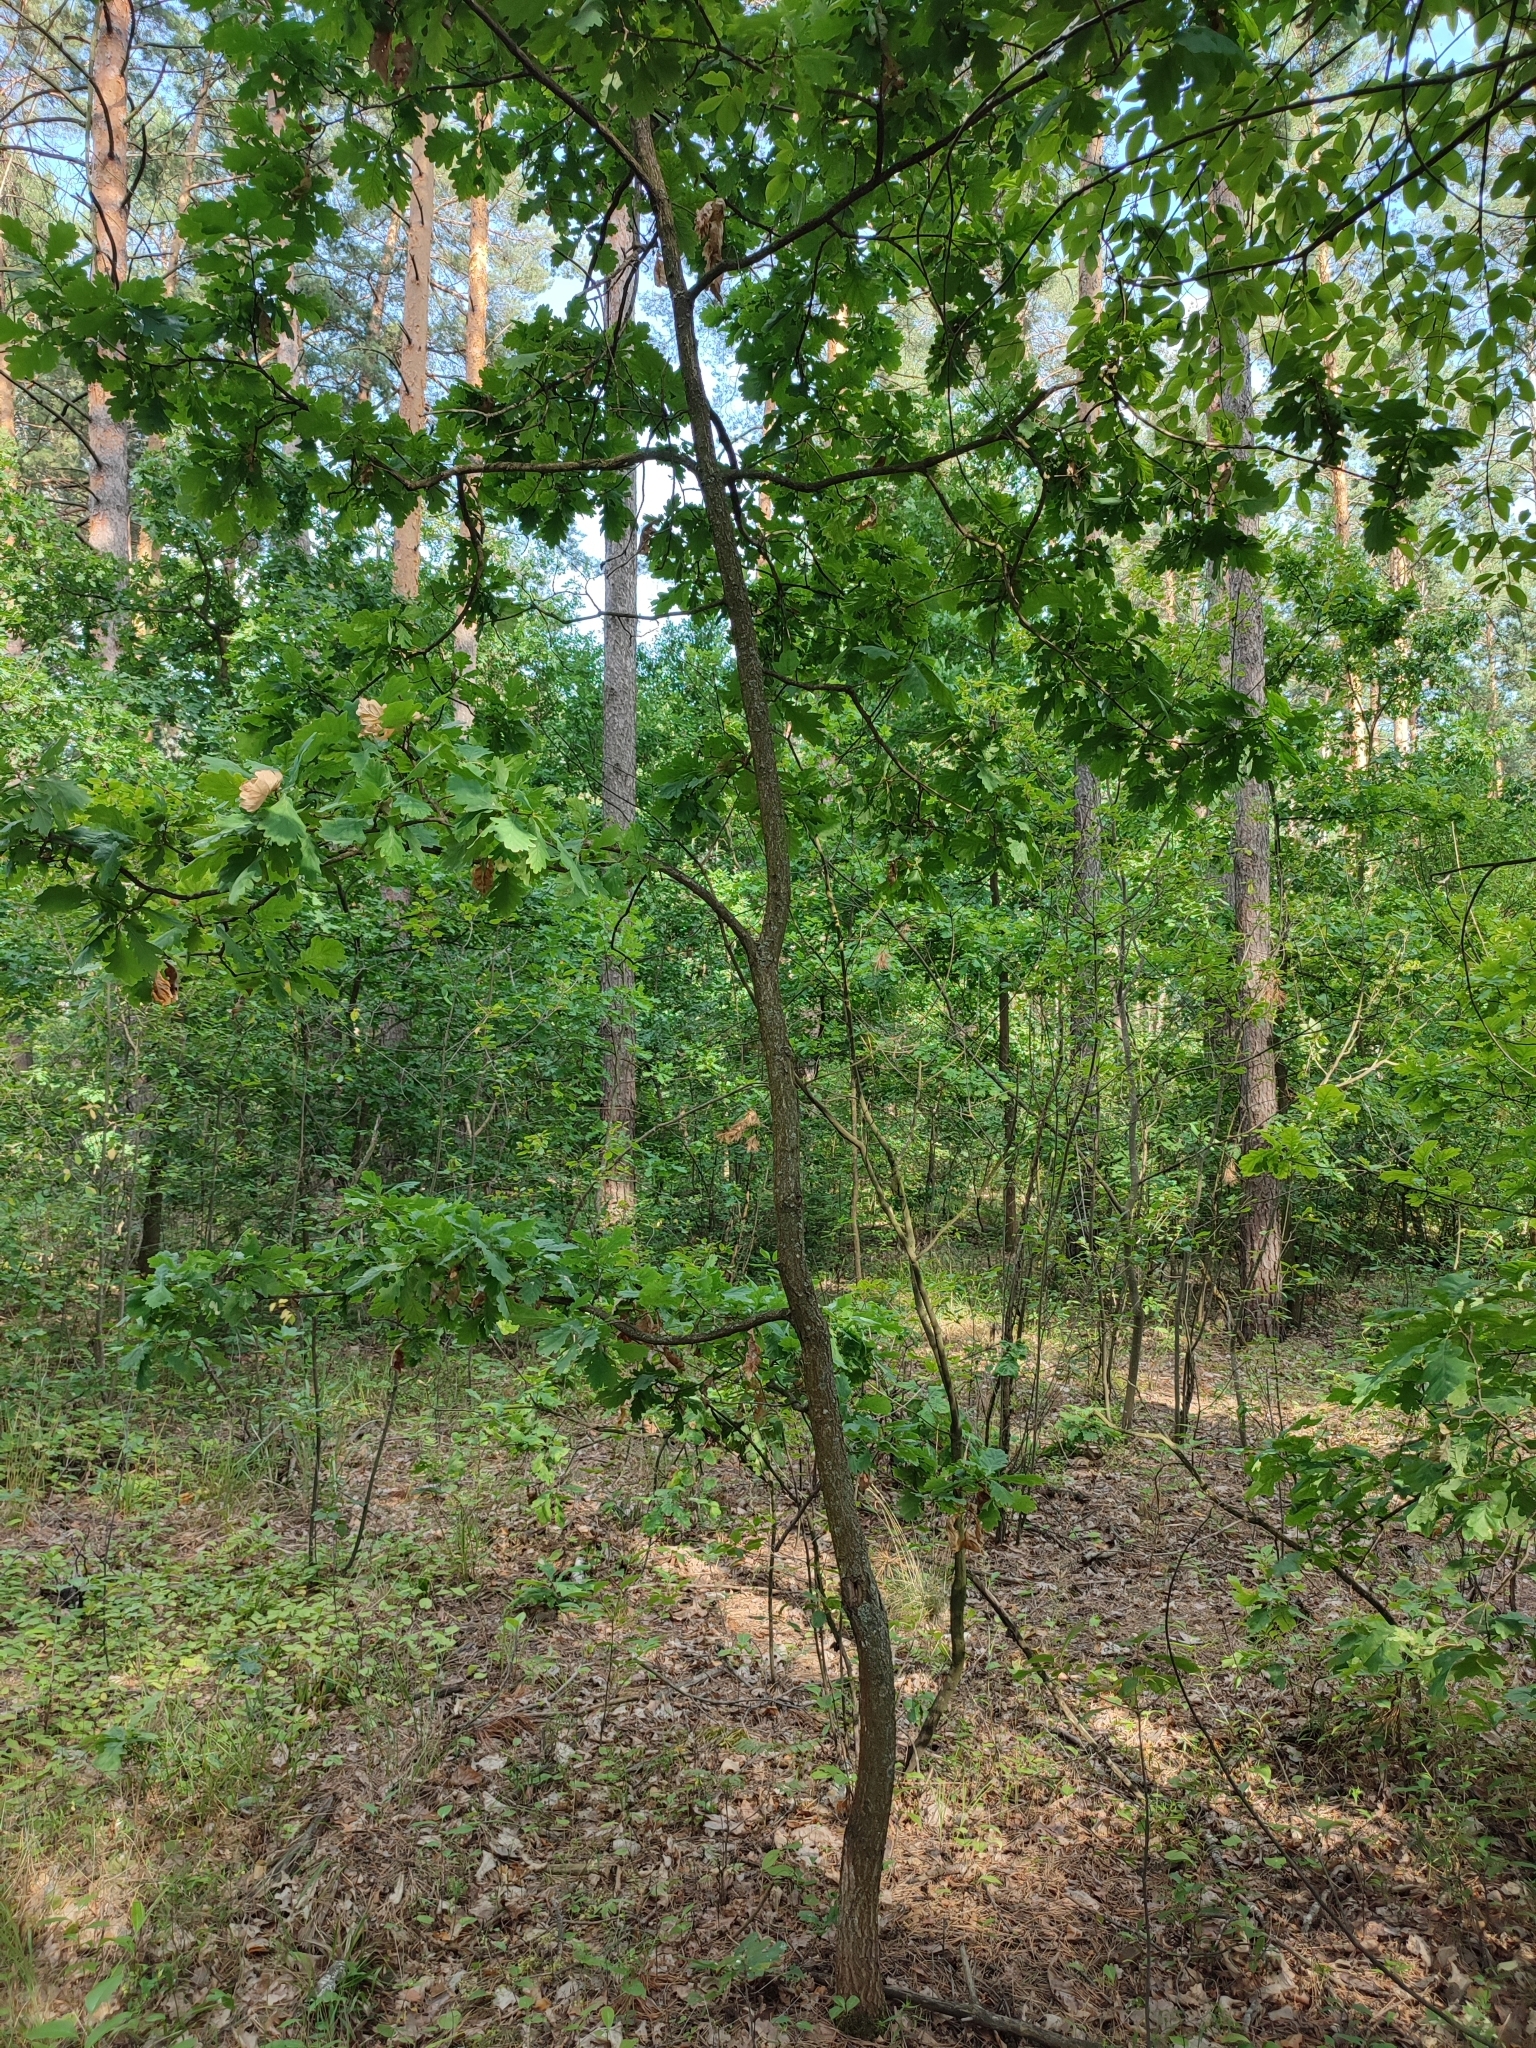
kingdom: Plantae
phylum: Tracheophyta
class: Magnoliopsida
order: Fagales
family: Fagaceae
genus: Quercus
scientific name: Quercus robur
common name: Pedunculate oak
